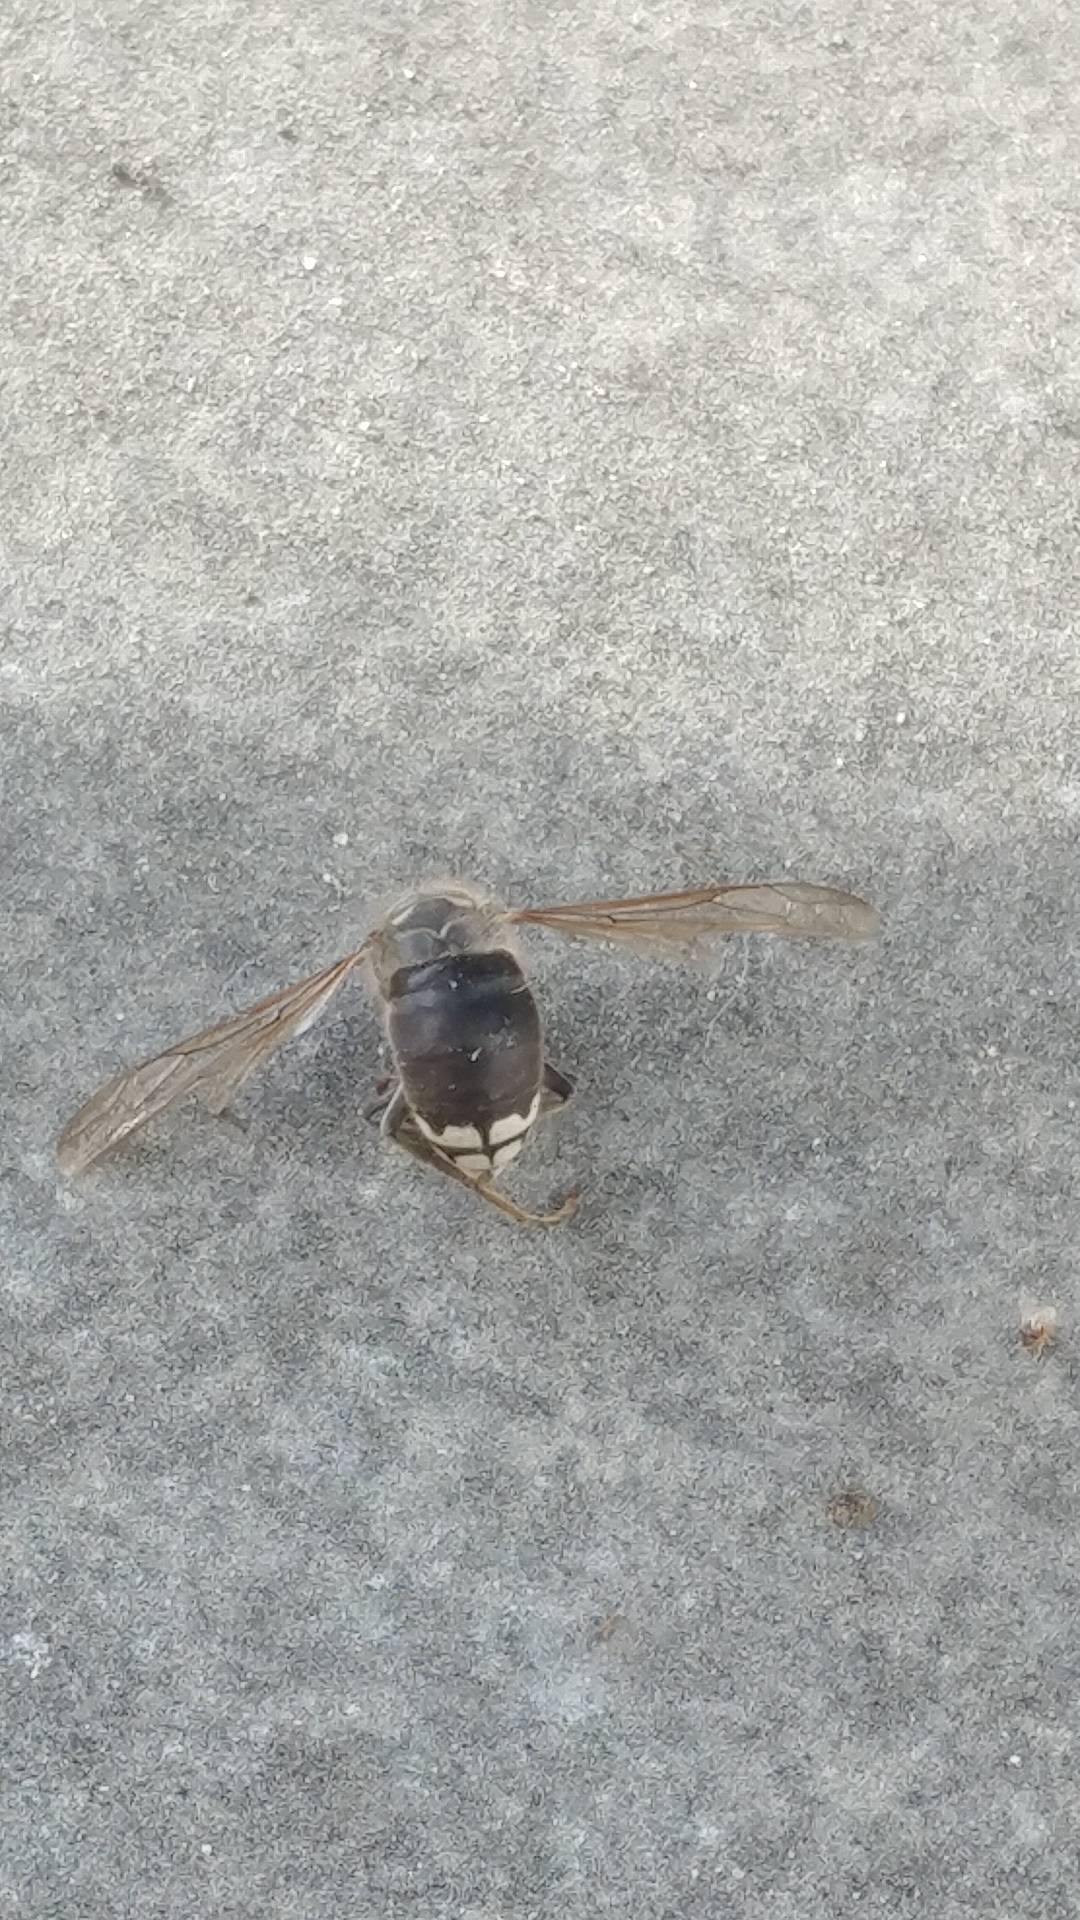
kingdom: Animalia
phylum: Arthropoda
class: Insecta
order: Hymenoptera
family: Vespidae
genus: Dolichovespula
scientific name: Dolichovespula maculata
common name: Bald-faced hornet
